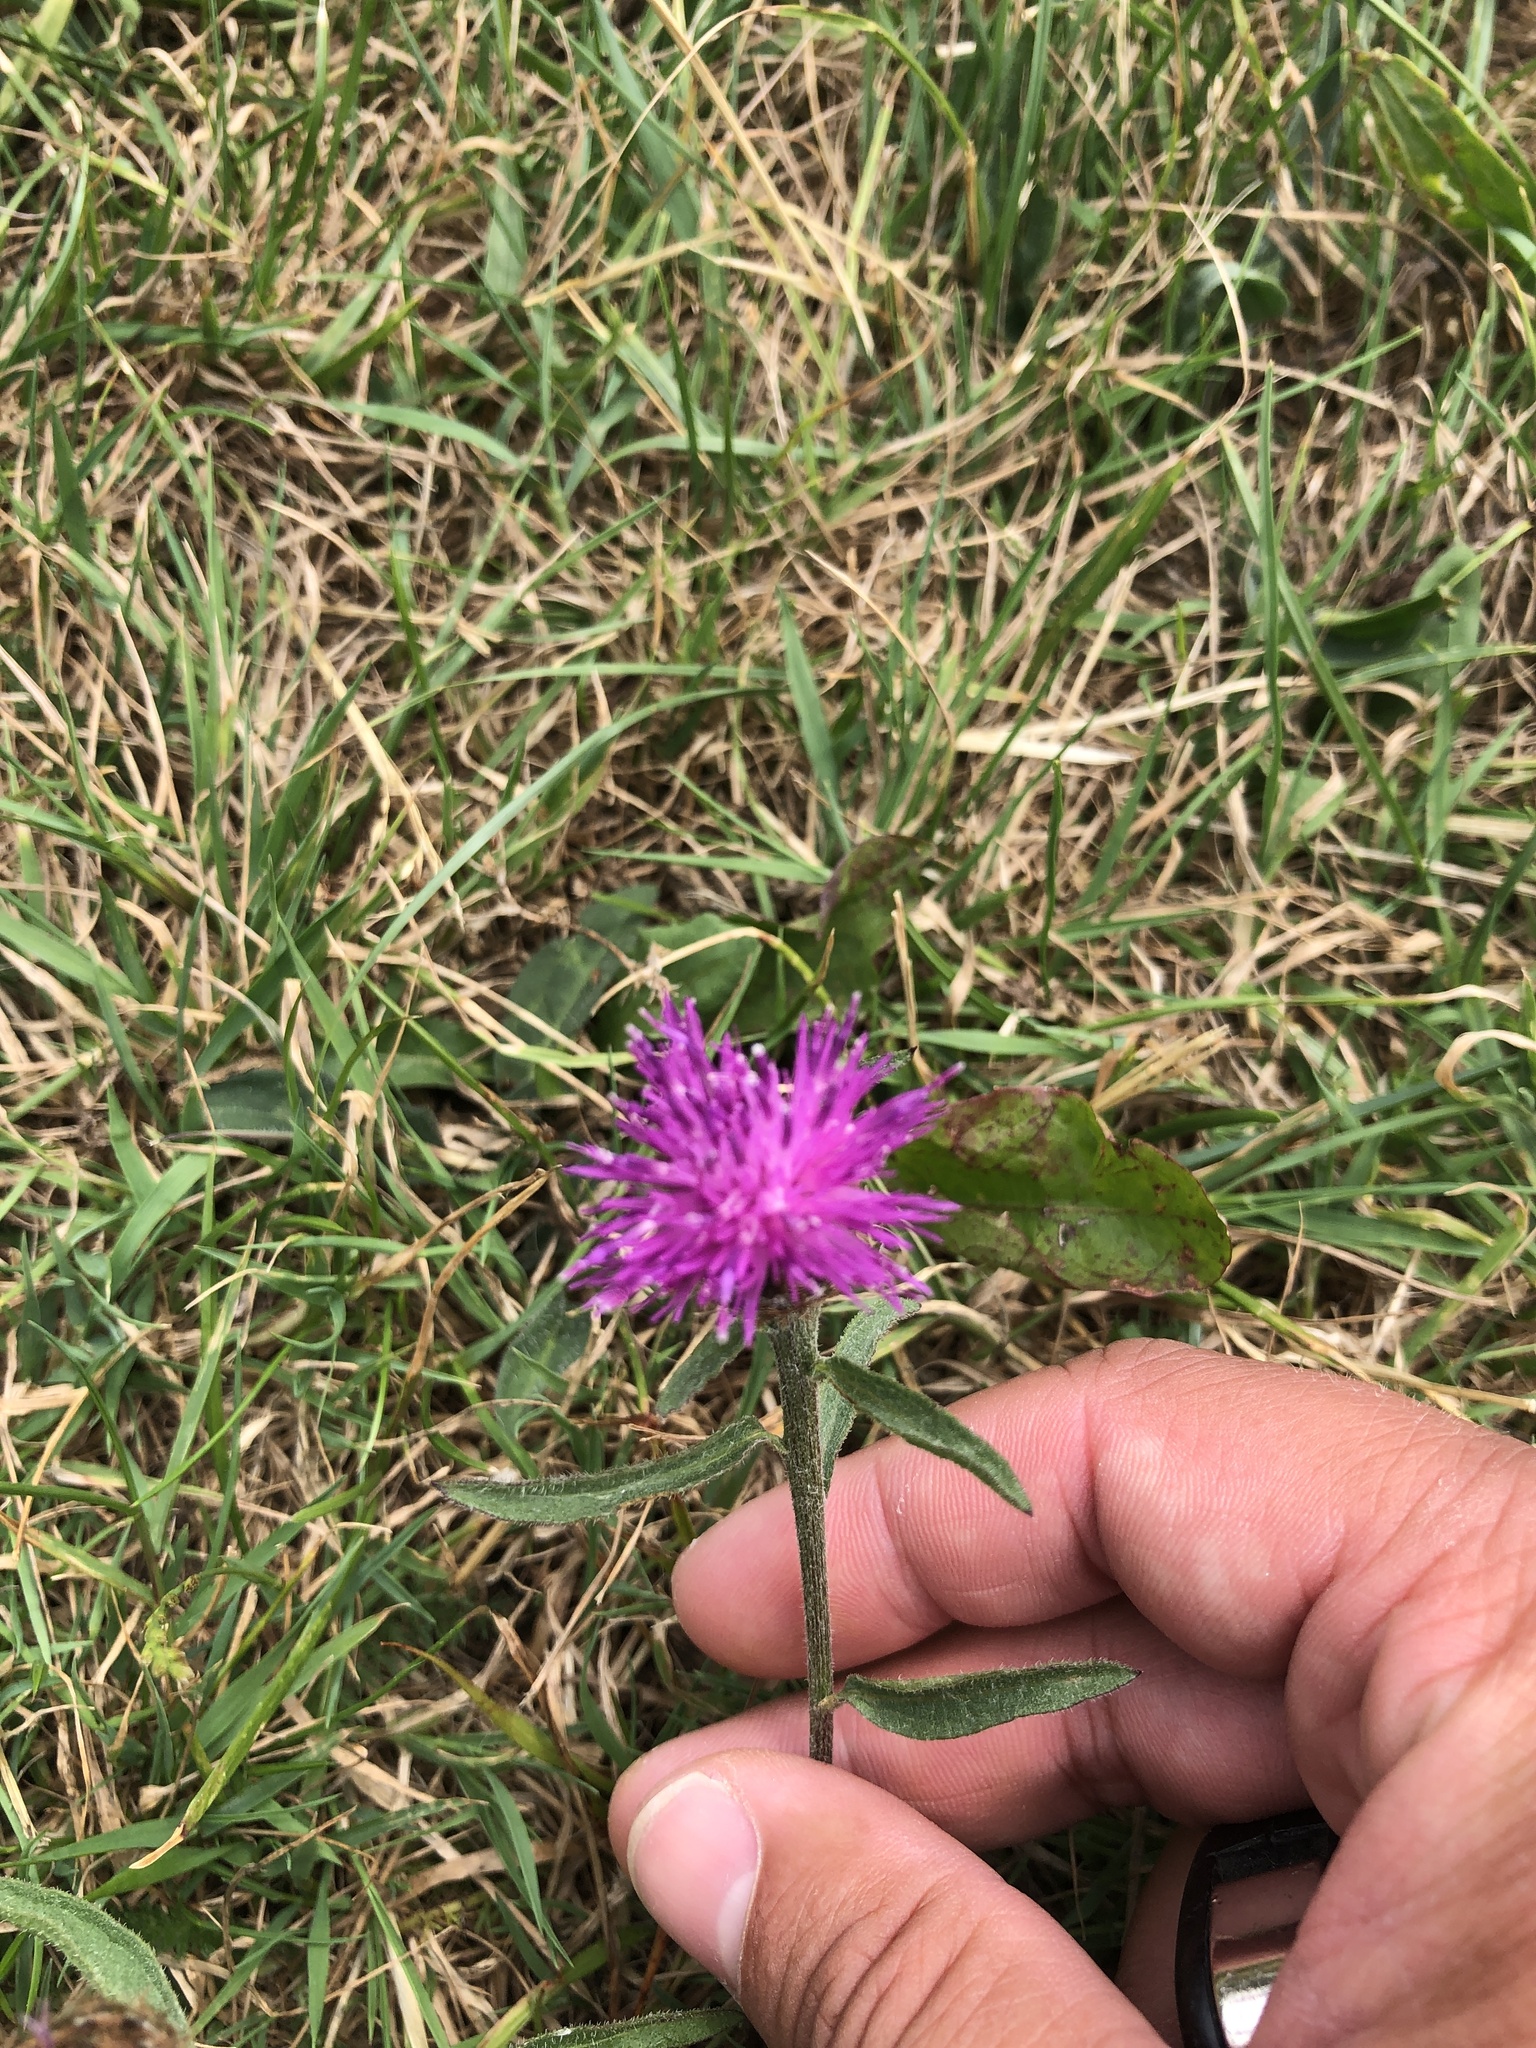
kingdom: Plantae
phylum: Tracheophyta
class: Magnoliopsida
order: Asterales
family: Asteraceae
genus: Centaurea
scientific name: Centaurea nigra
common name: Lesser knapweed
